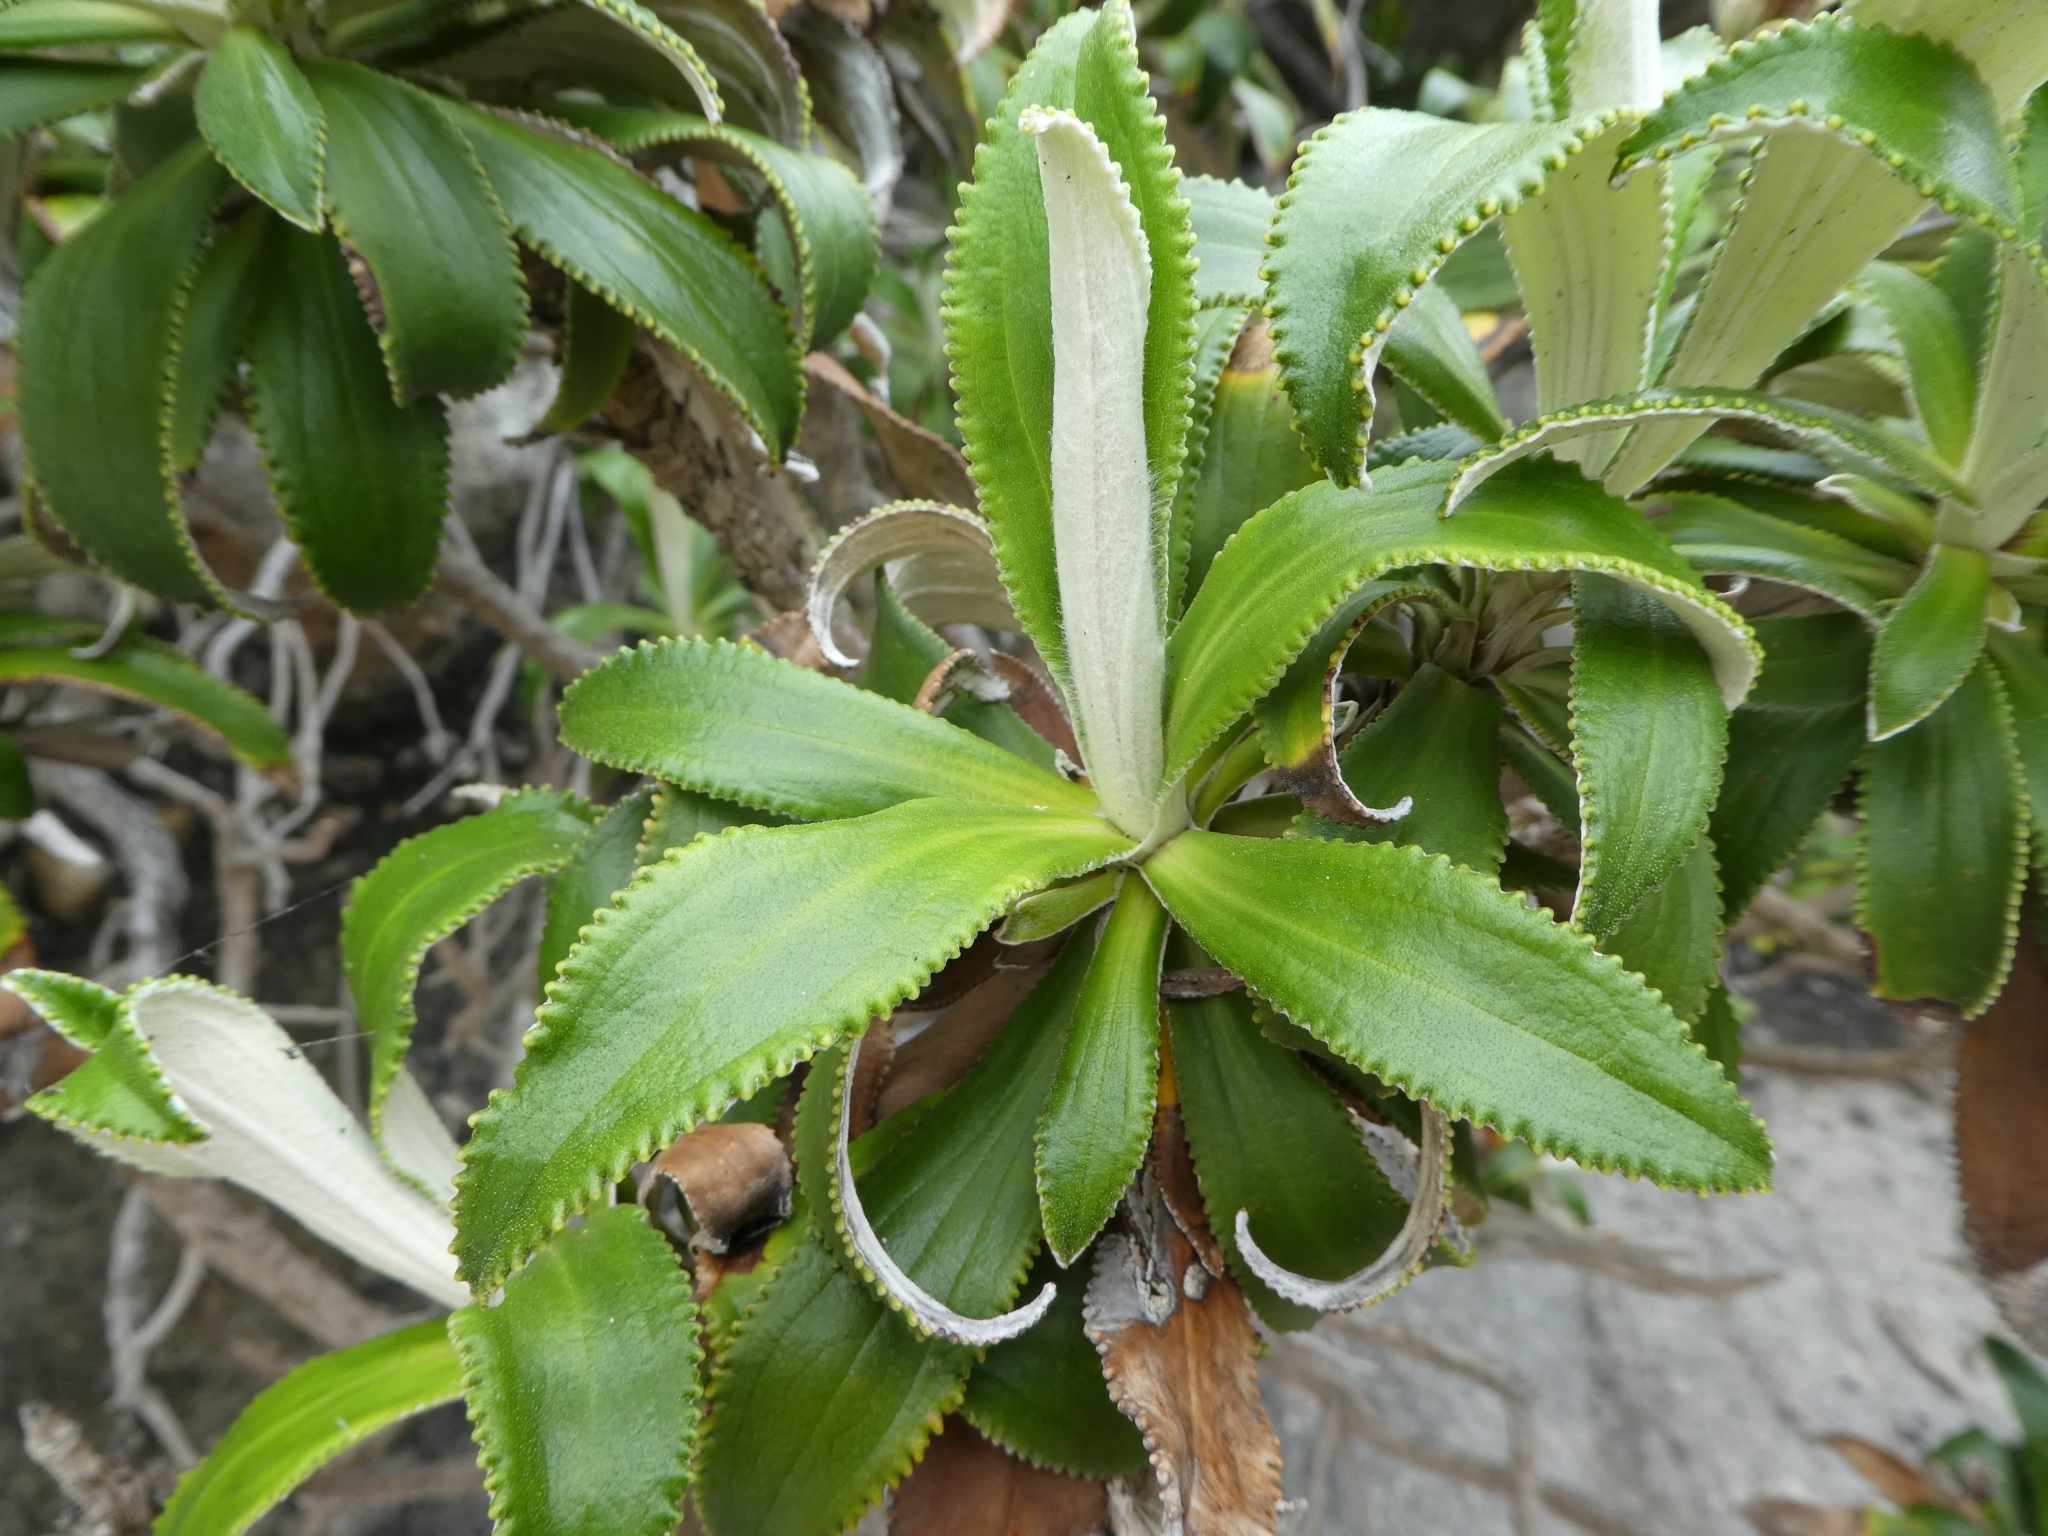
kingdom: Plantae
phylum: Tracheophyta
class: Magnoliopsida
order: Asterales
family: Asteraceae
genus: Macrolearia
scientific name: Macrolearia angustifolia
